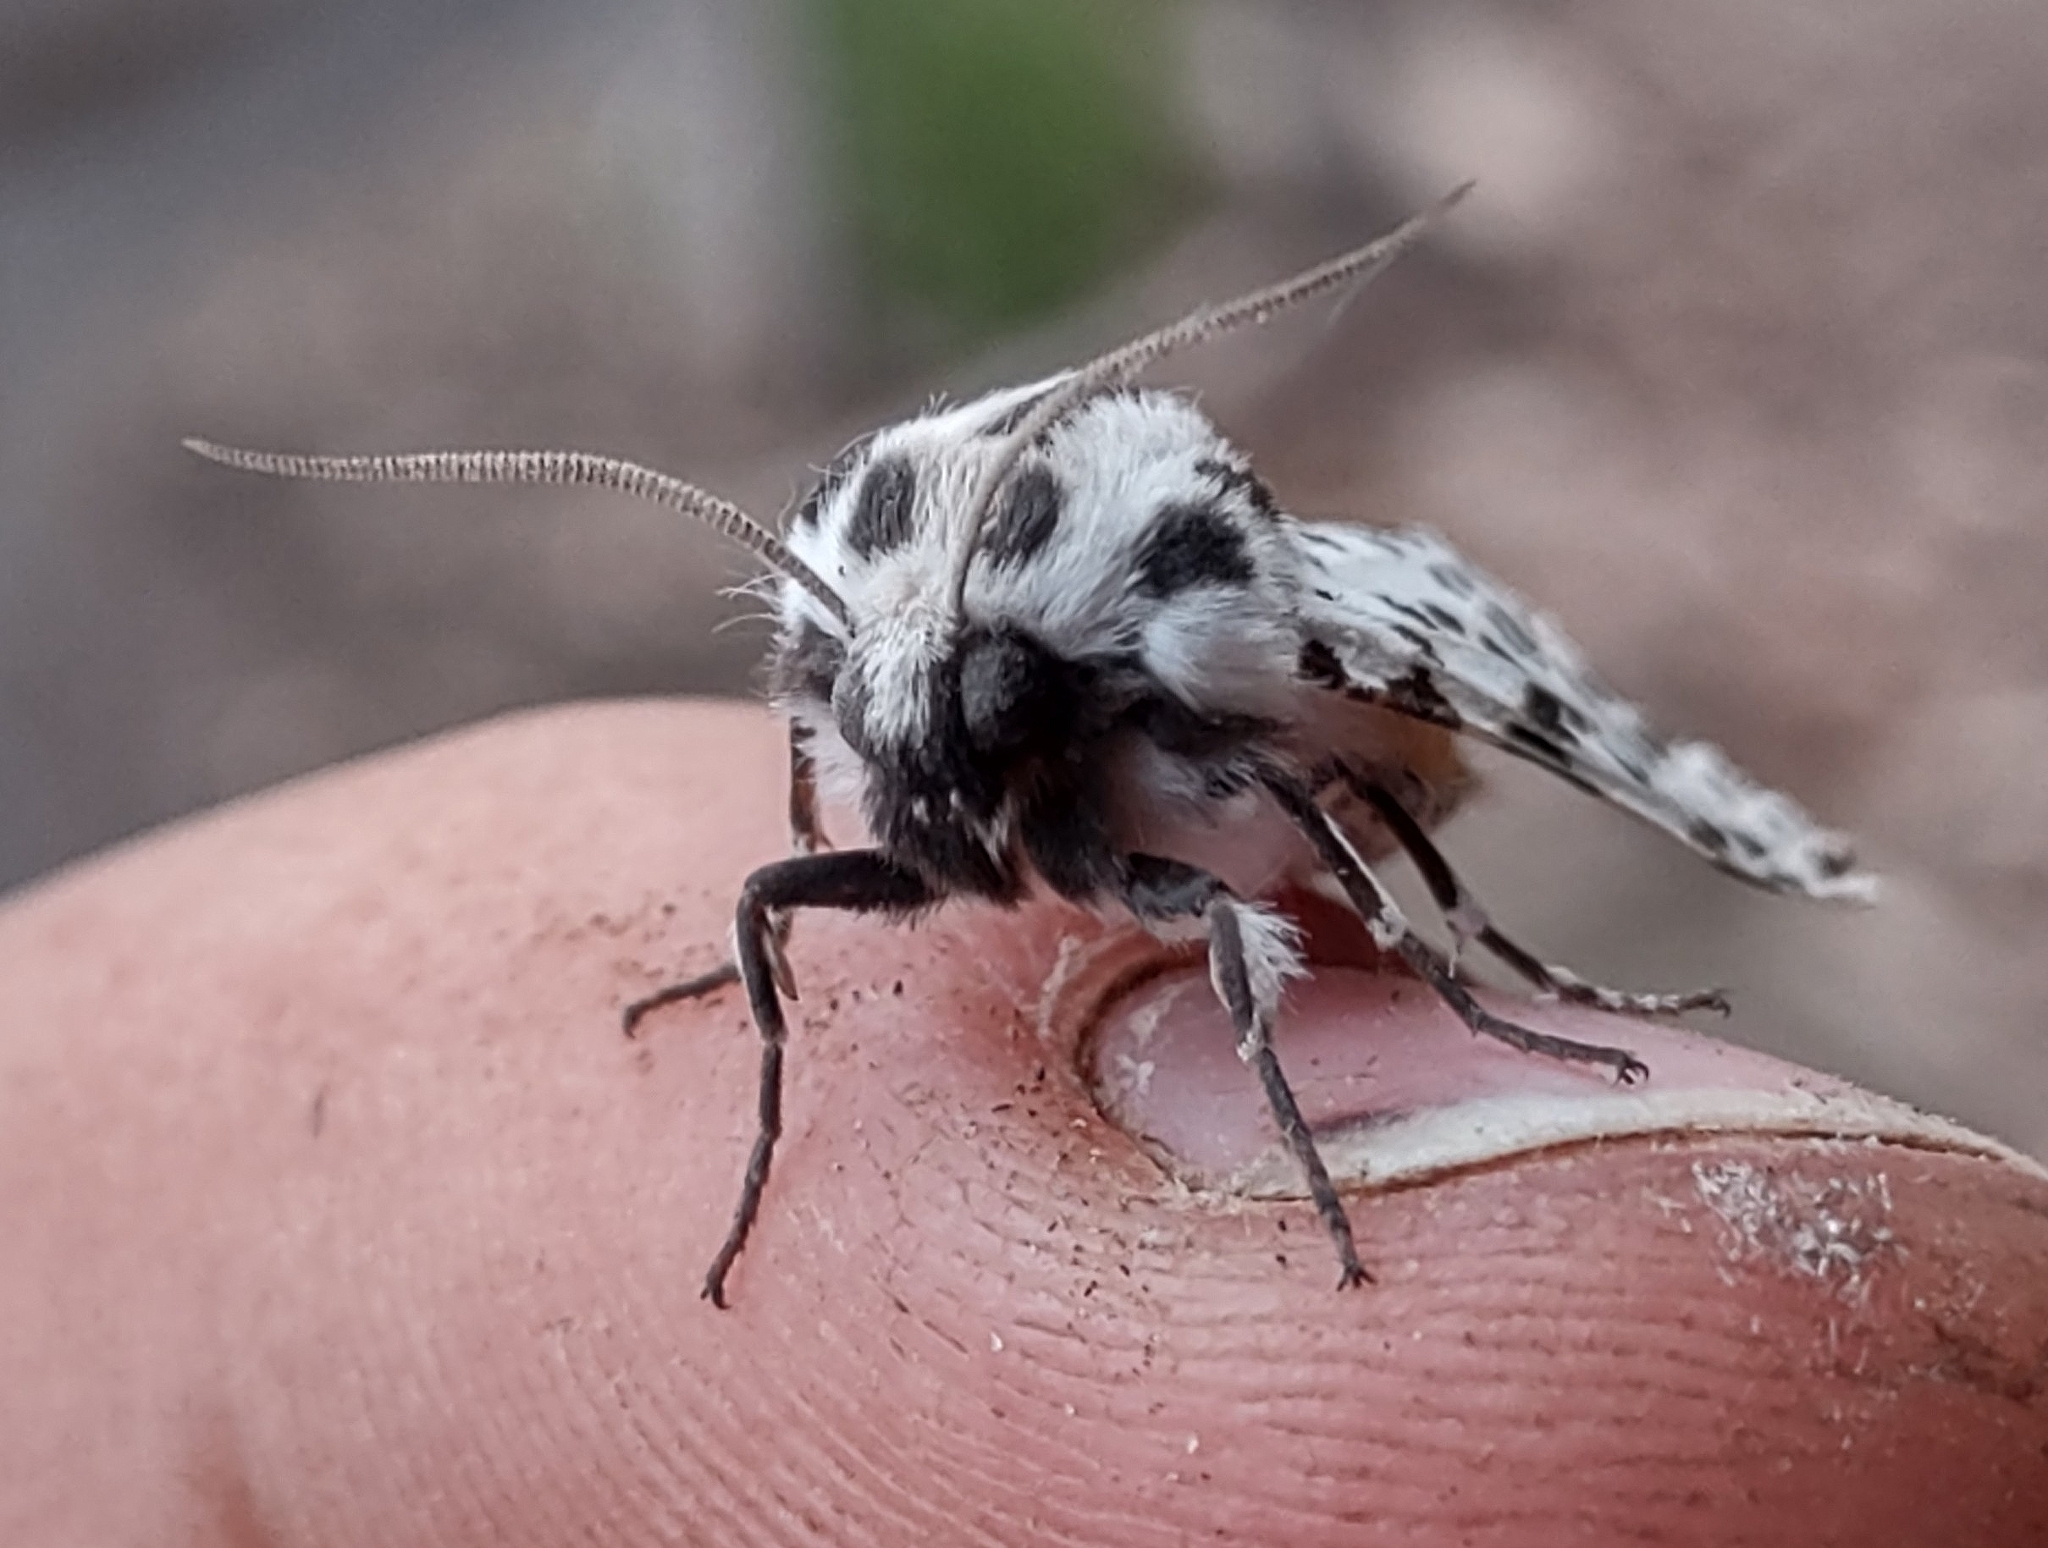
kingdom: Animalia
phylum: Arthropoda
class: Insecta
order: Lepidoptera
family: Erebidae
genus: Hypercompe
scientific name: Hypercompe permaculata
